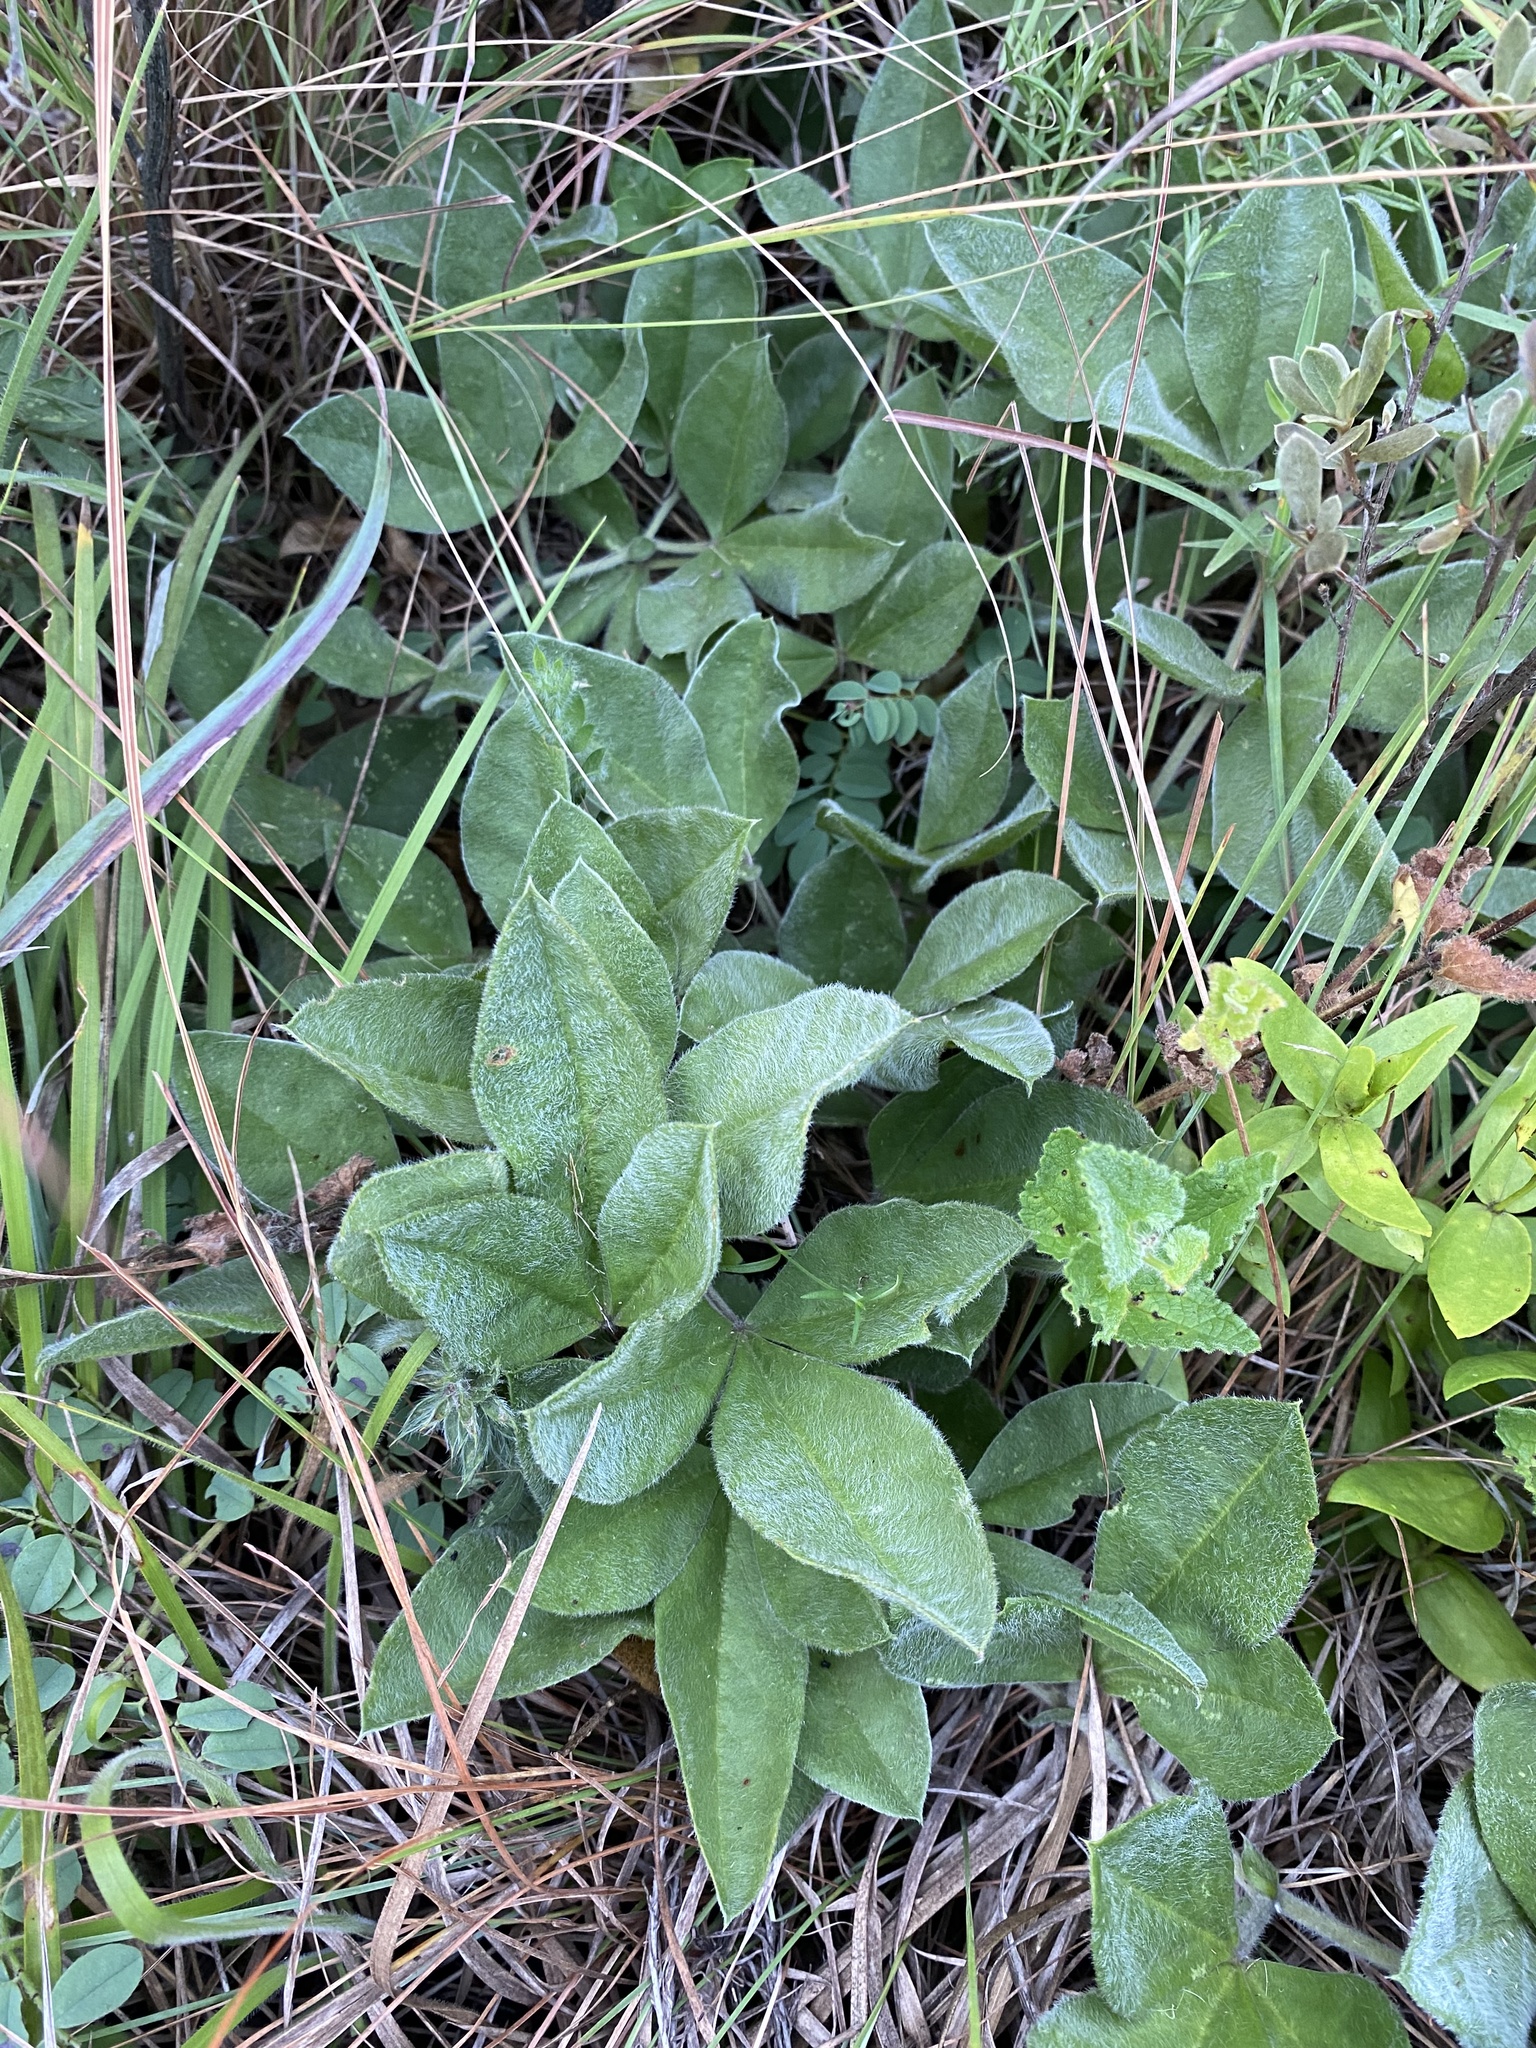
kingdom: Plantae
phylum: Tracheophyta
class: Magnoliopsida
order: Fabales
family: Fabaceae
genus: Pearsonia
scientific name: Pearsonia grandifolia
